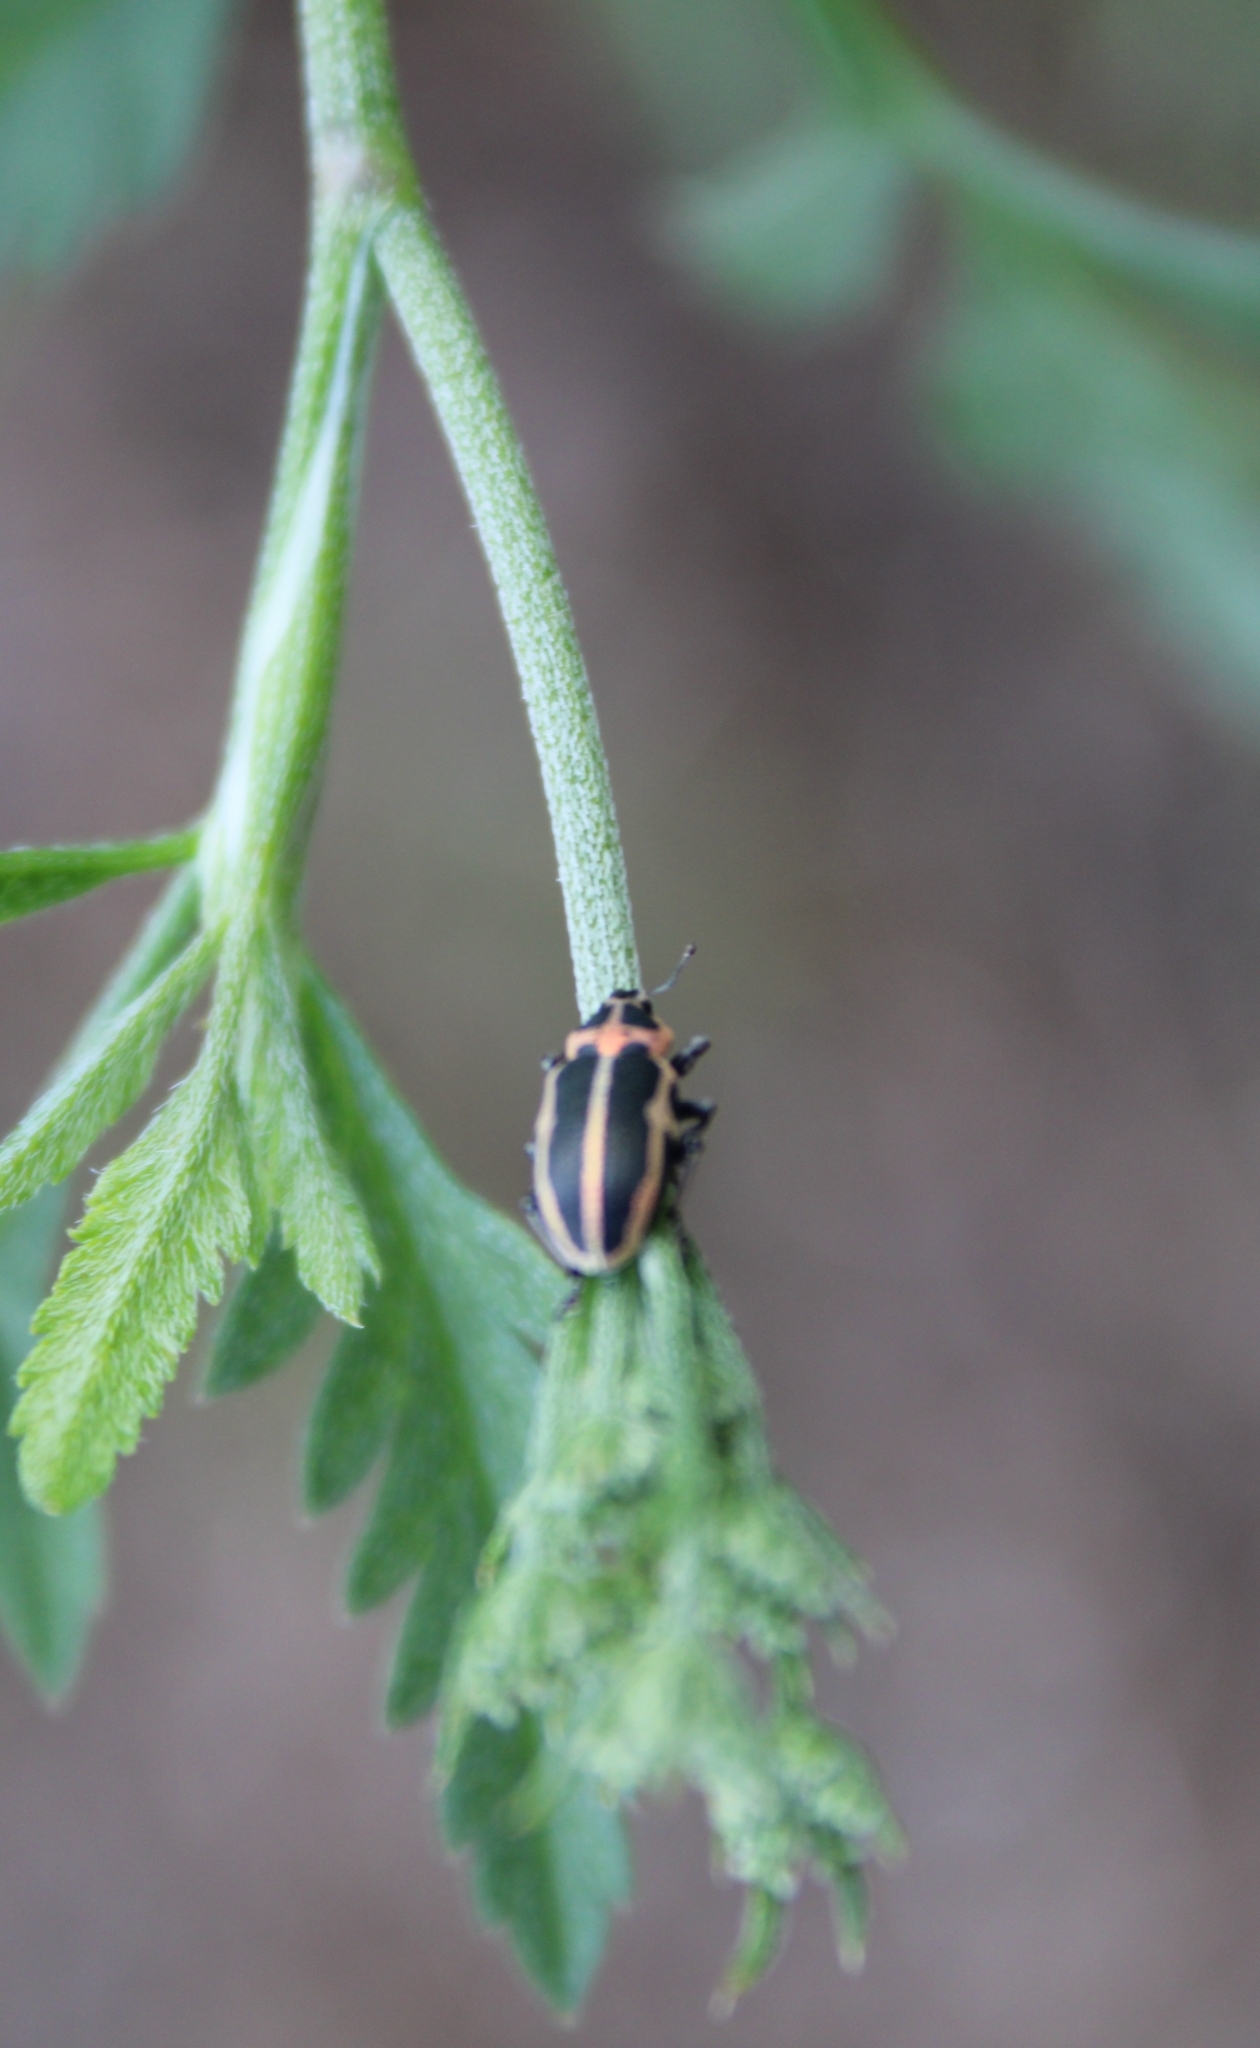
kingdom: Animalia
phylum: Arthropoda
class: Insecta
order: Coleoptera
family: Curculionidae
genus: Eudiagogus
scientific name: Eudiagogus pulcher
